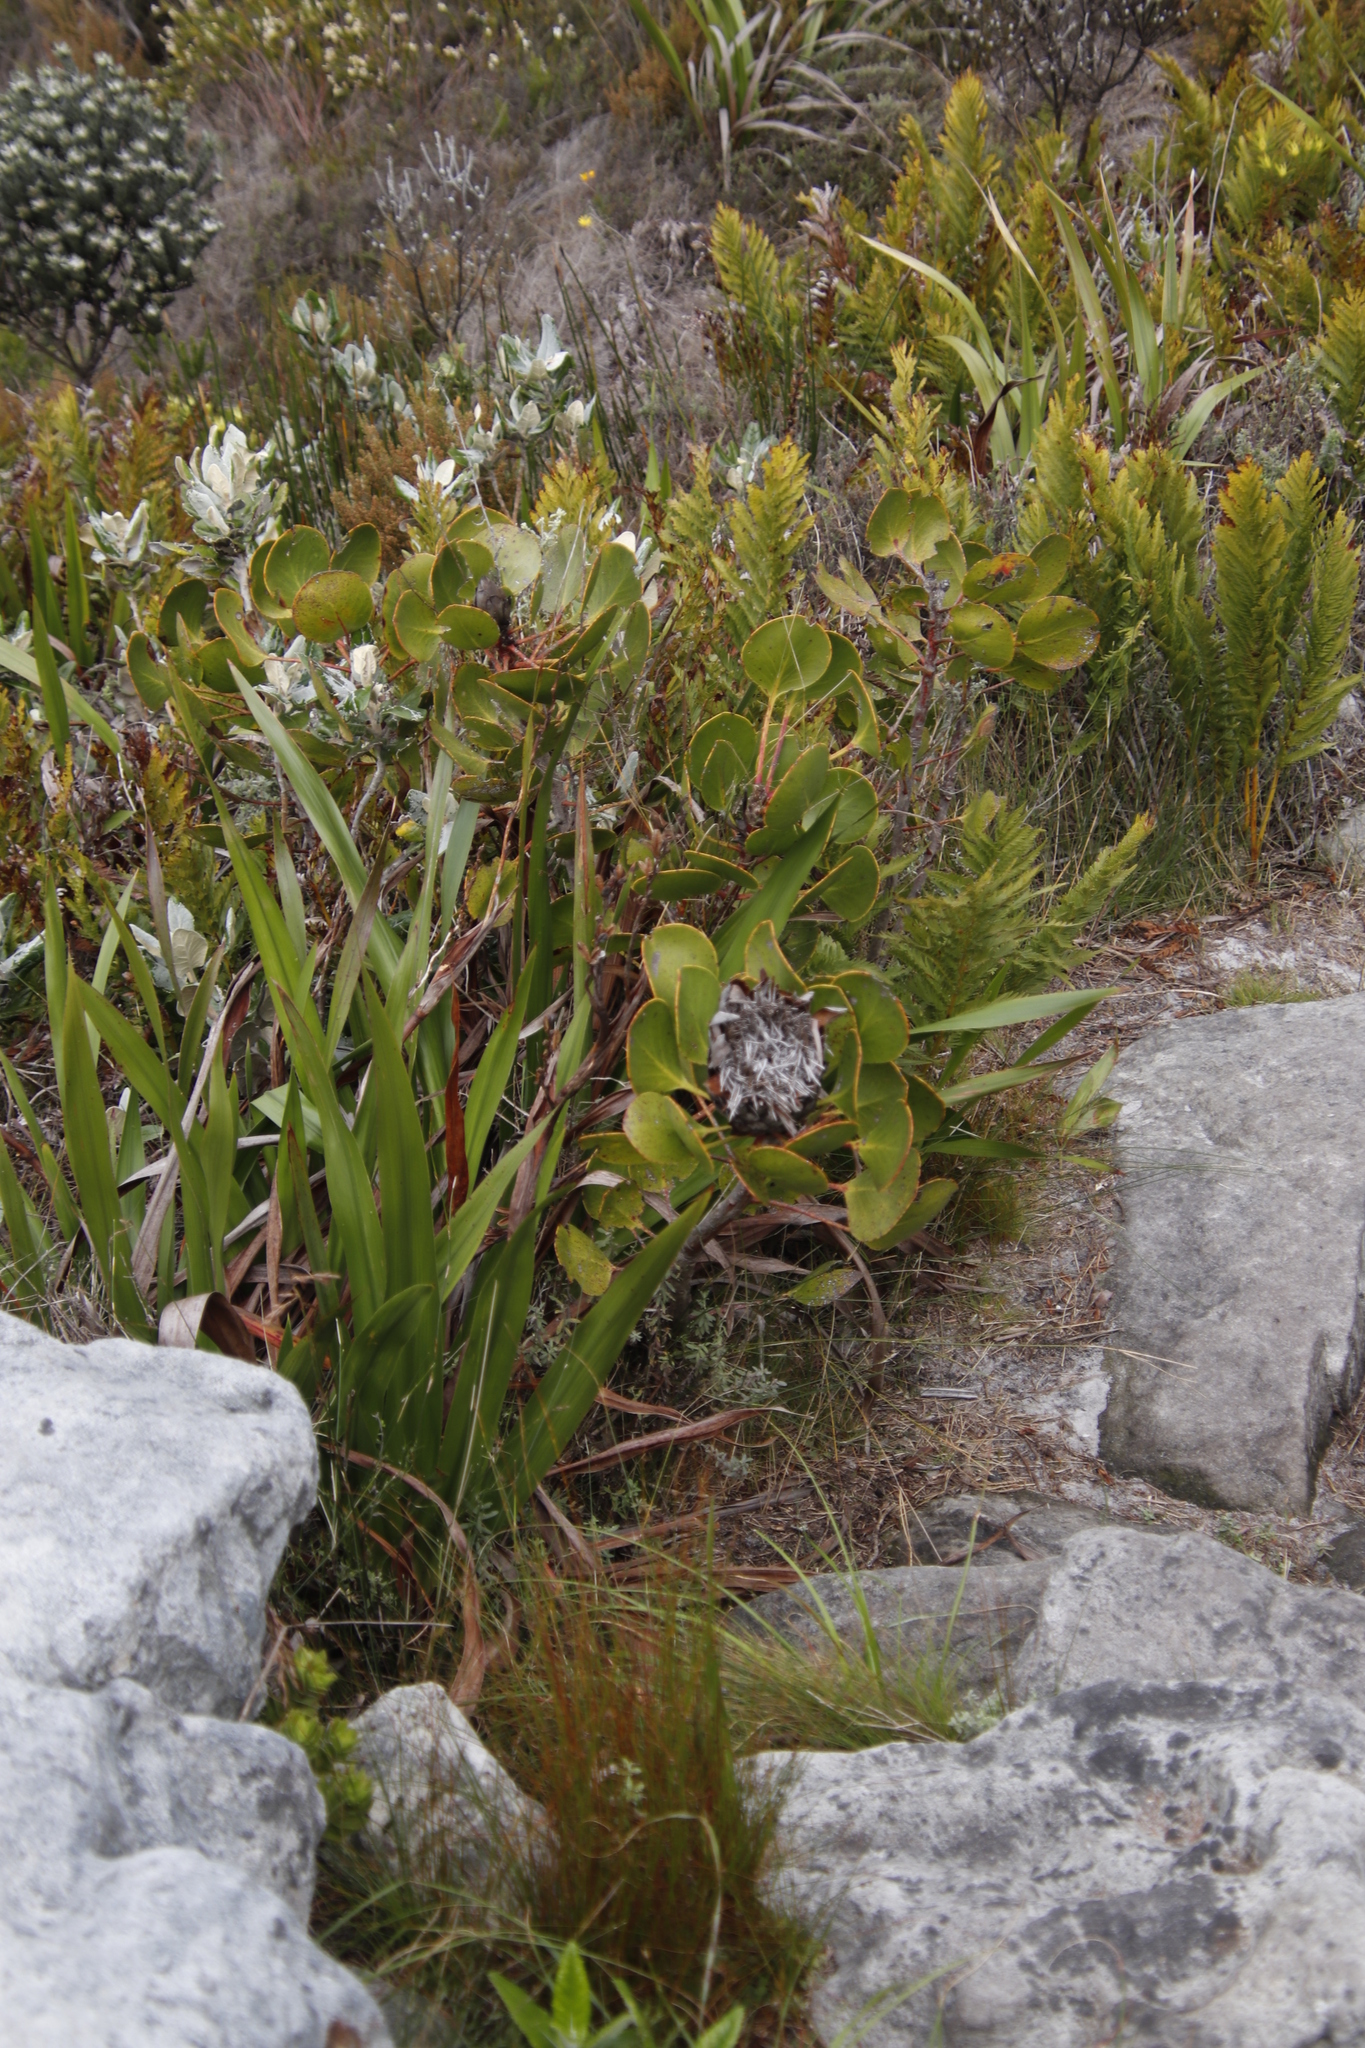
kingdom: Plantae
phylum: Tracheophyta
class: Magnoliopsida
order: Proteales
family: Proteaceae
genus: Protea
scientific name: Protea speciosa
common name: Brown-beard sugarbush
